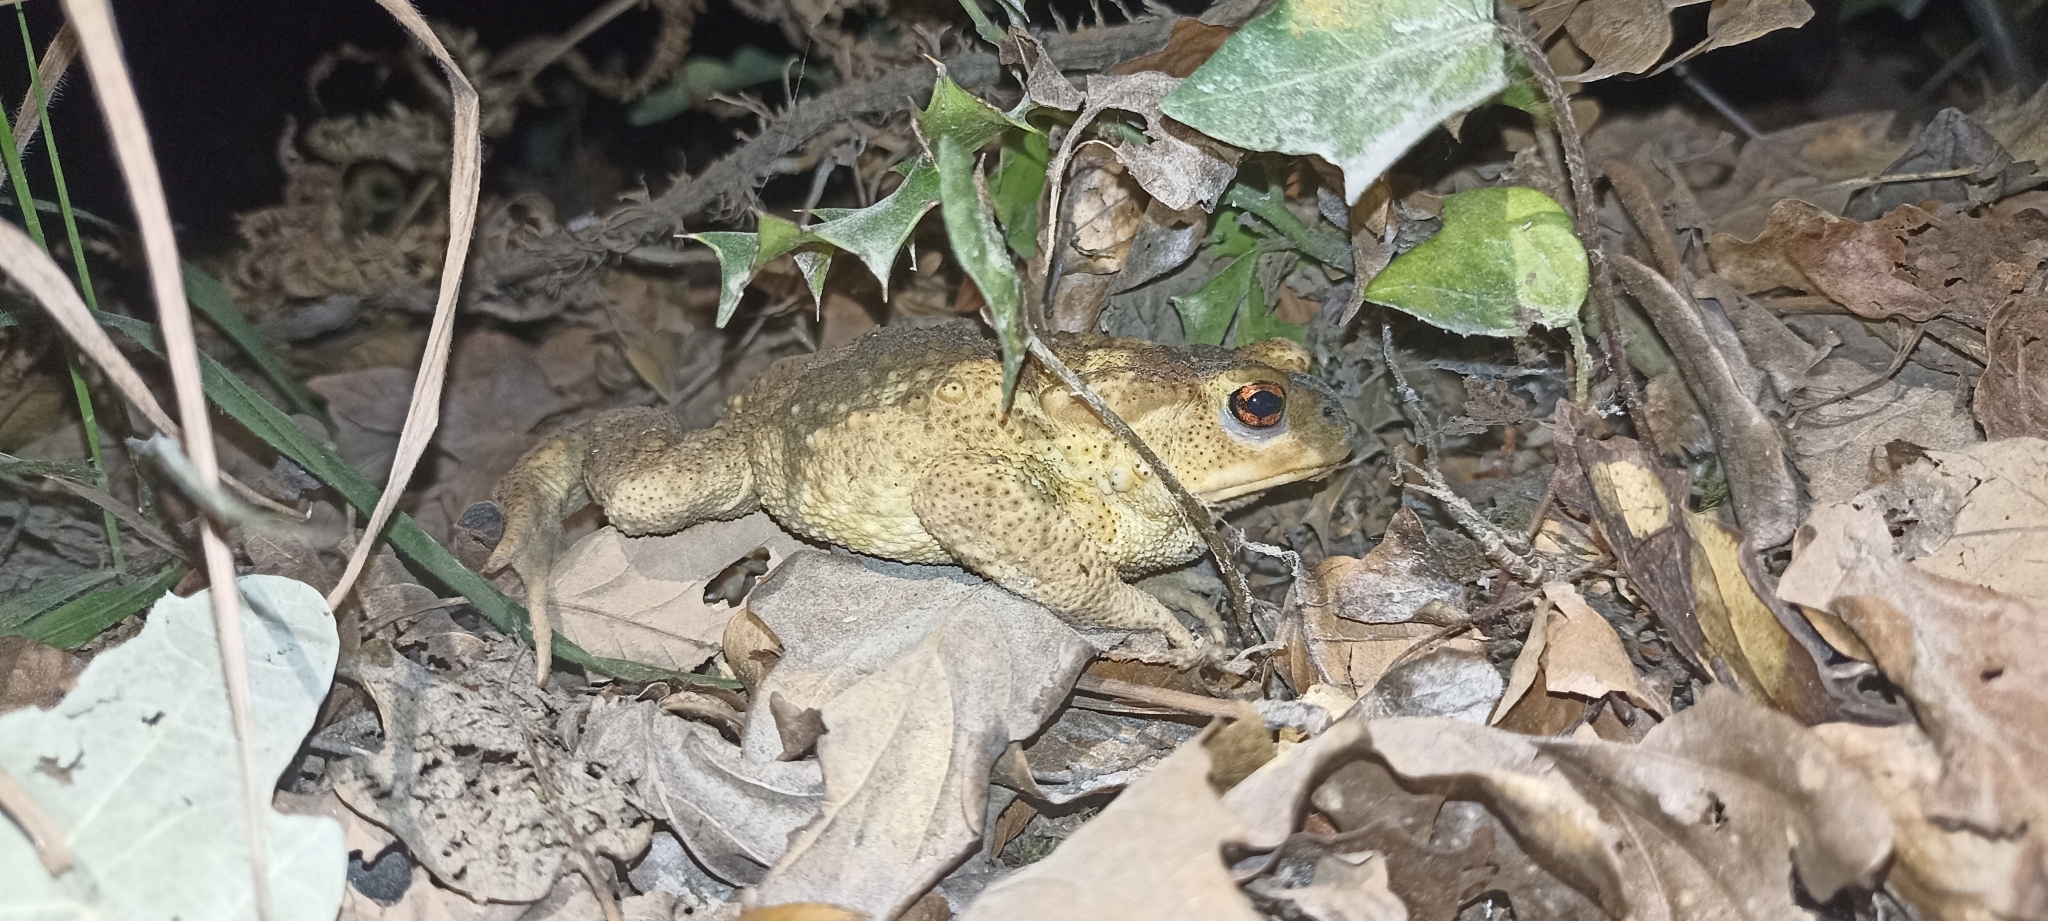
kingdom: Animalia
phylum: Chordata
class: Amphibia
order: Anura
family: Bufonidae
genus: Bufo
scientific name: Bufo spinosus
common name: Western common toad
